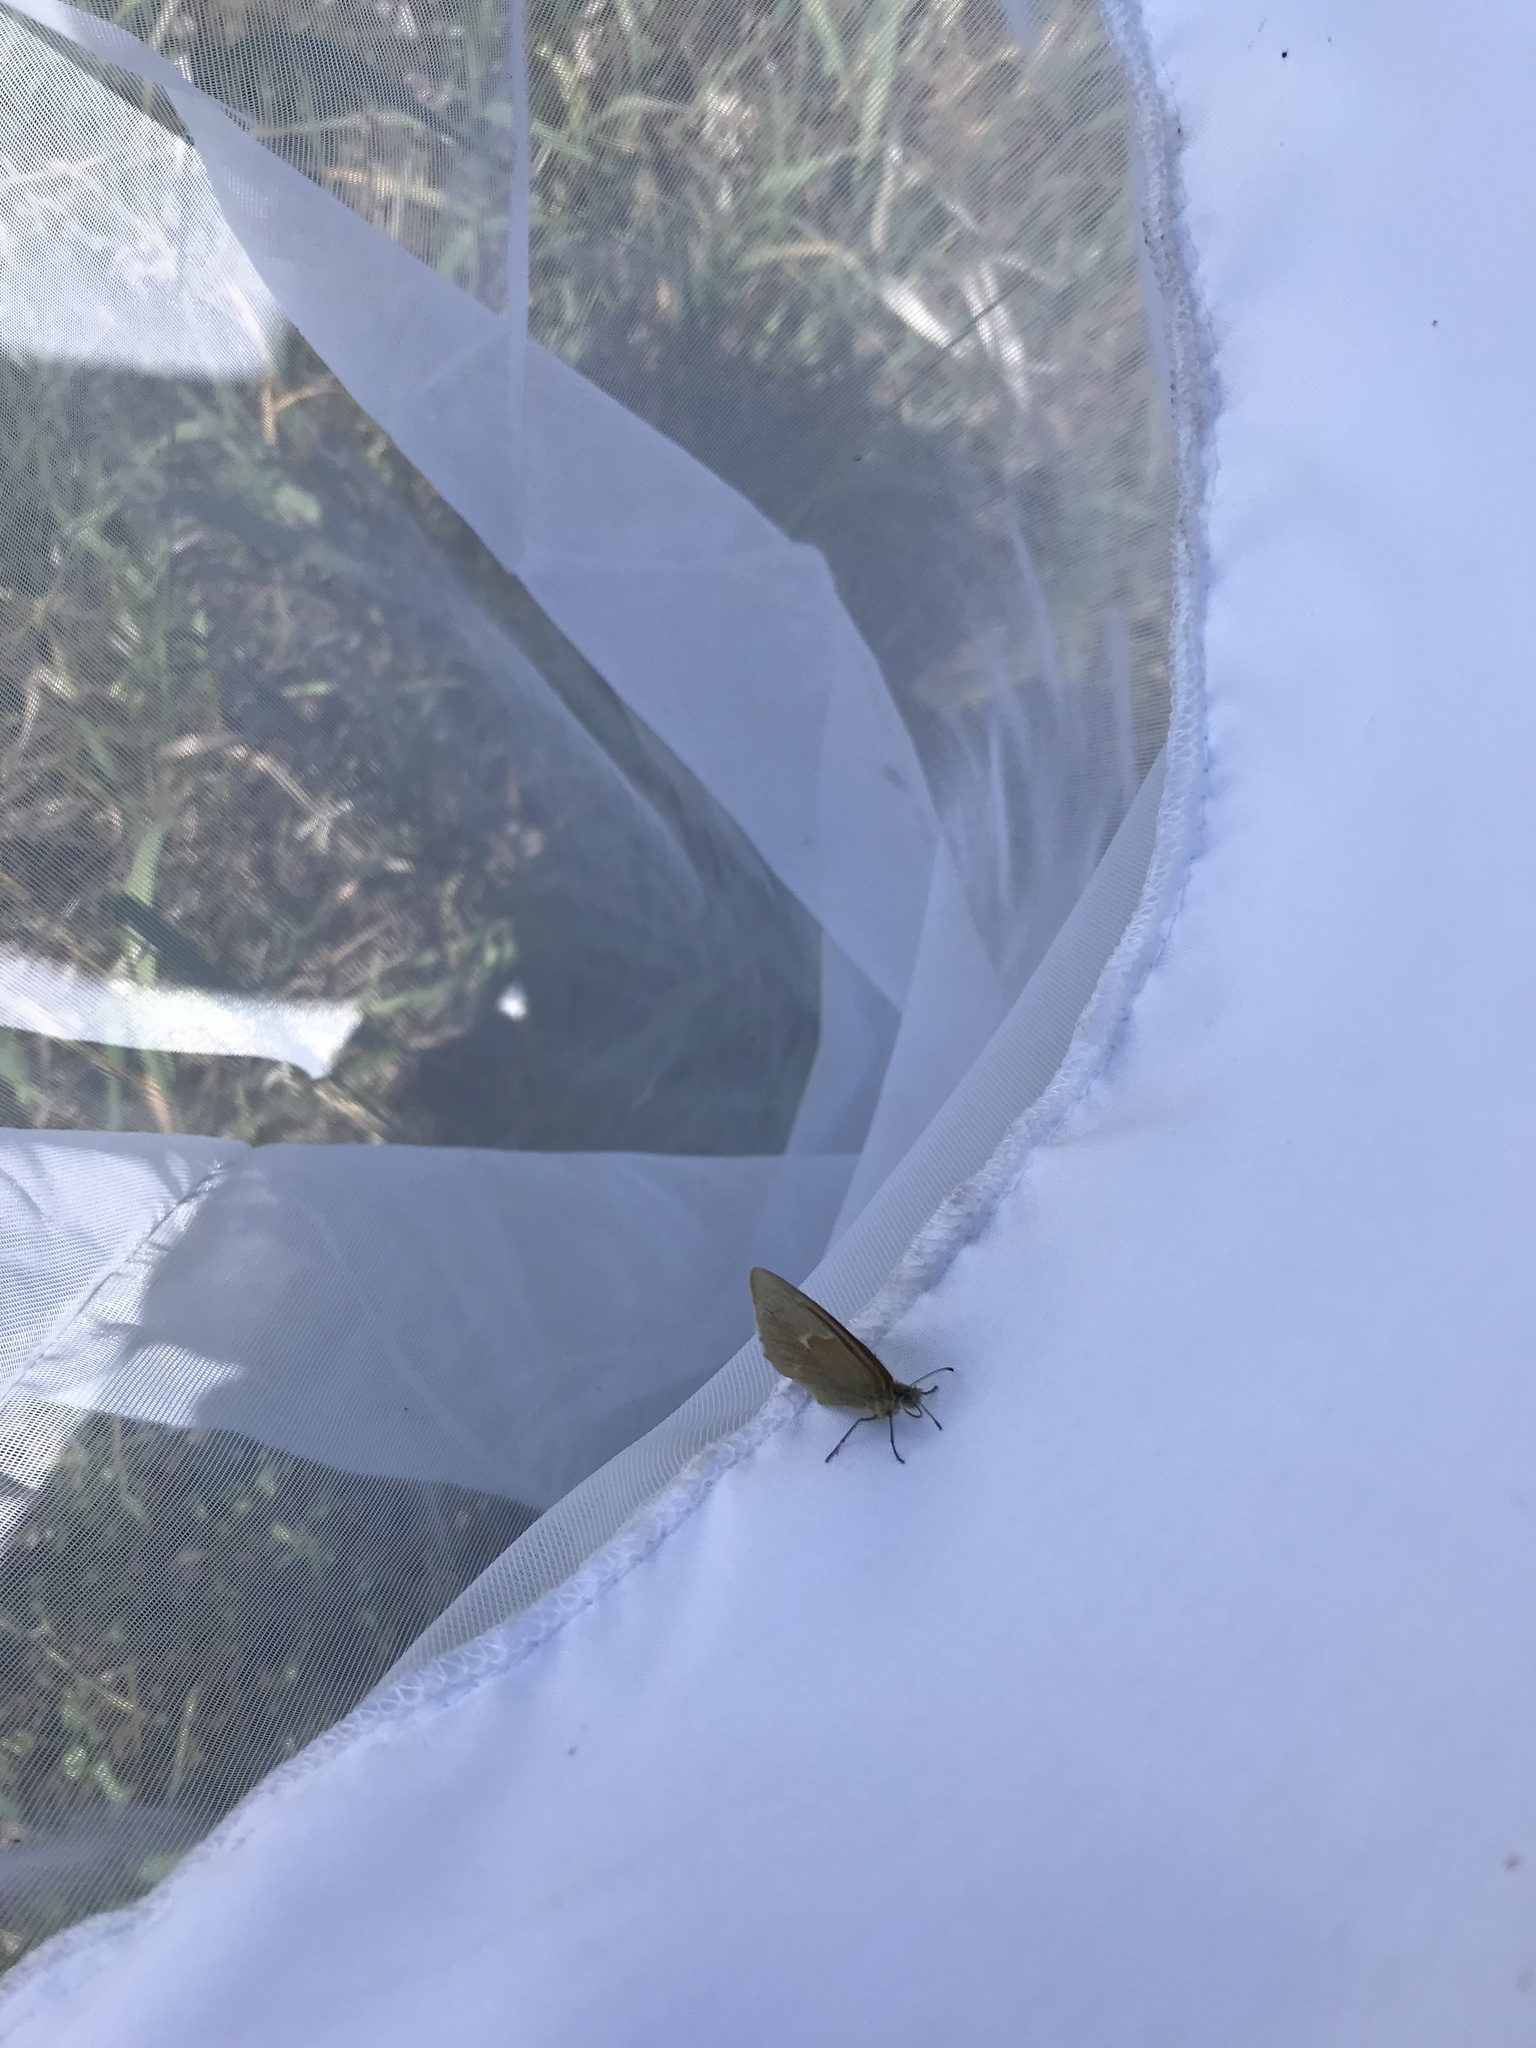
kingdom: Animalia
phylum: Arthropoda
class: Insecta
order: Lepidoptera
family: Nymphalidae
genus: Coenonympha
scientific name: Coenonympha california
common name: Common ringlet
